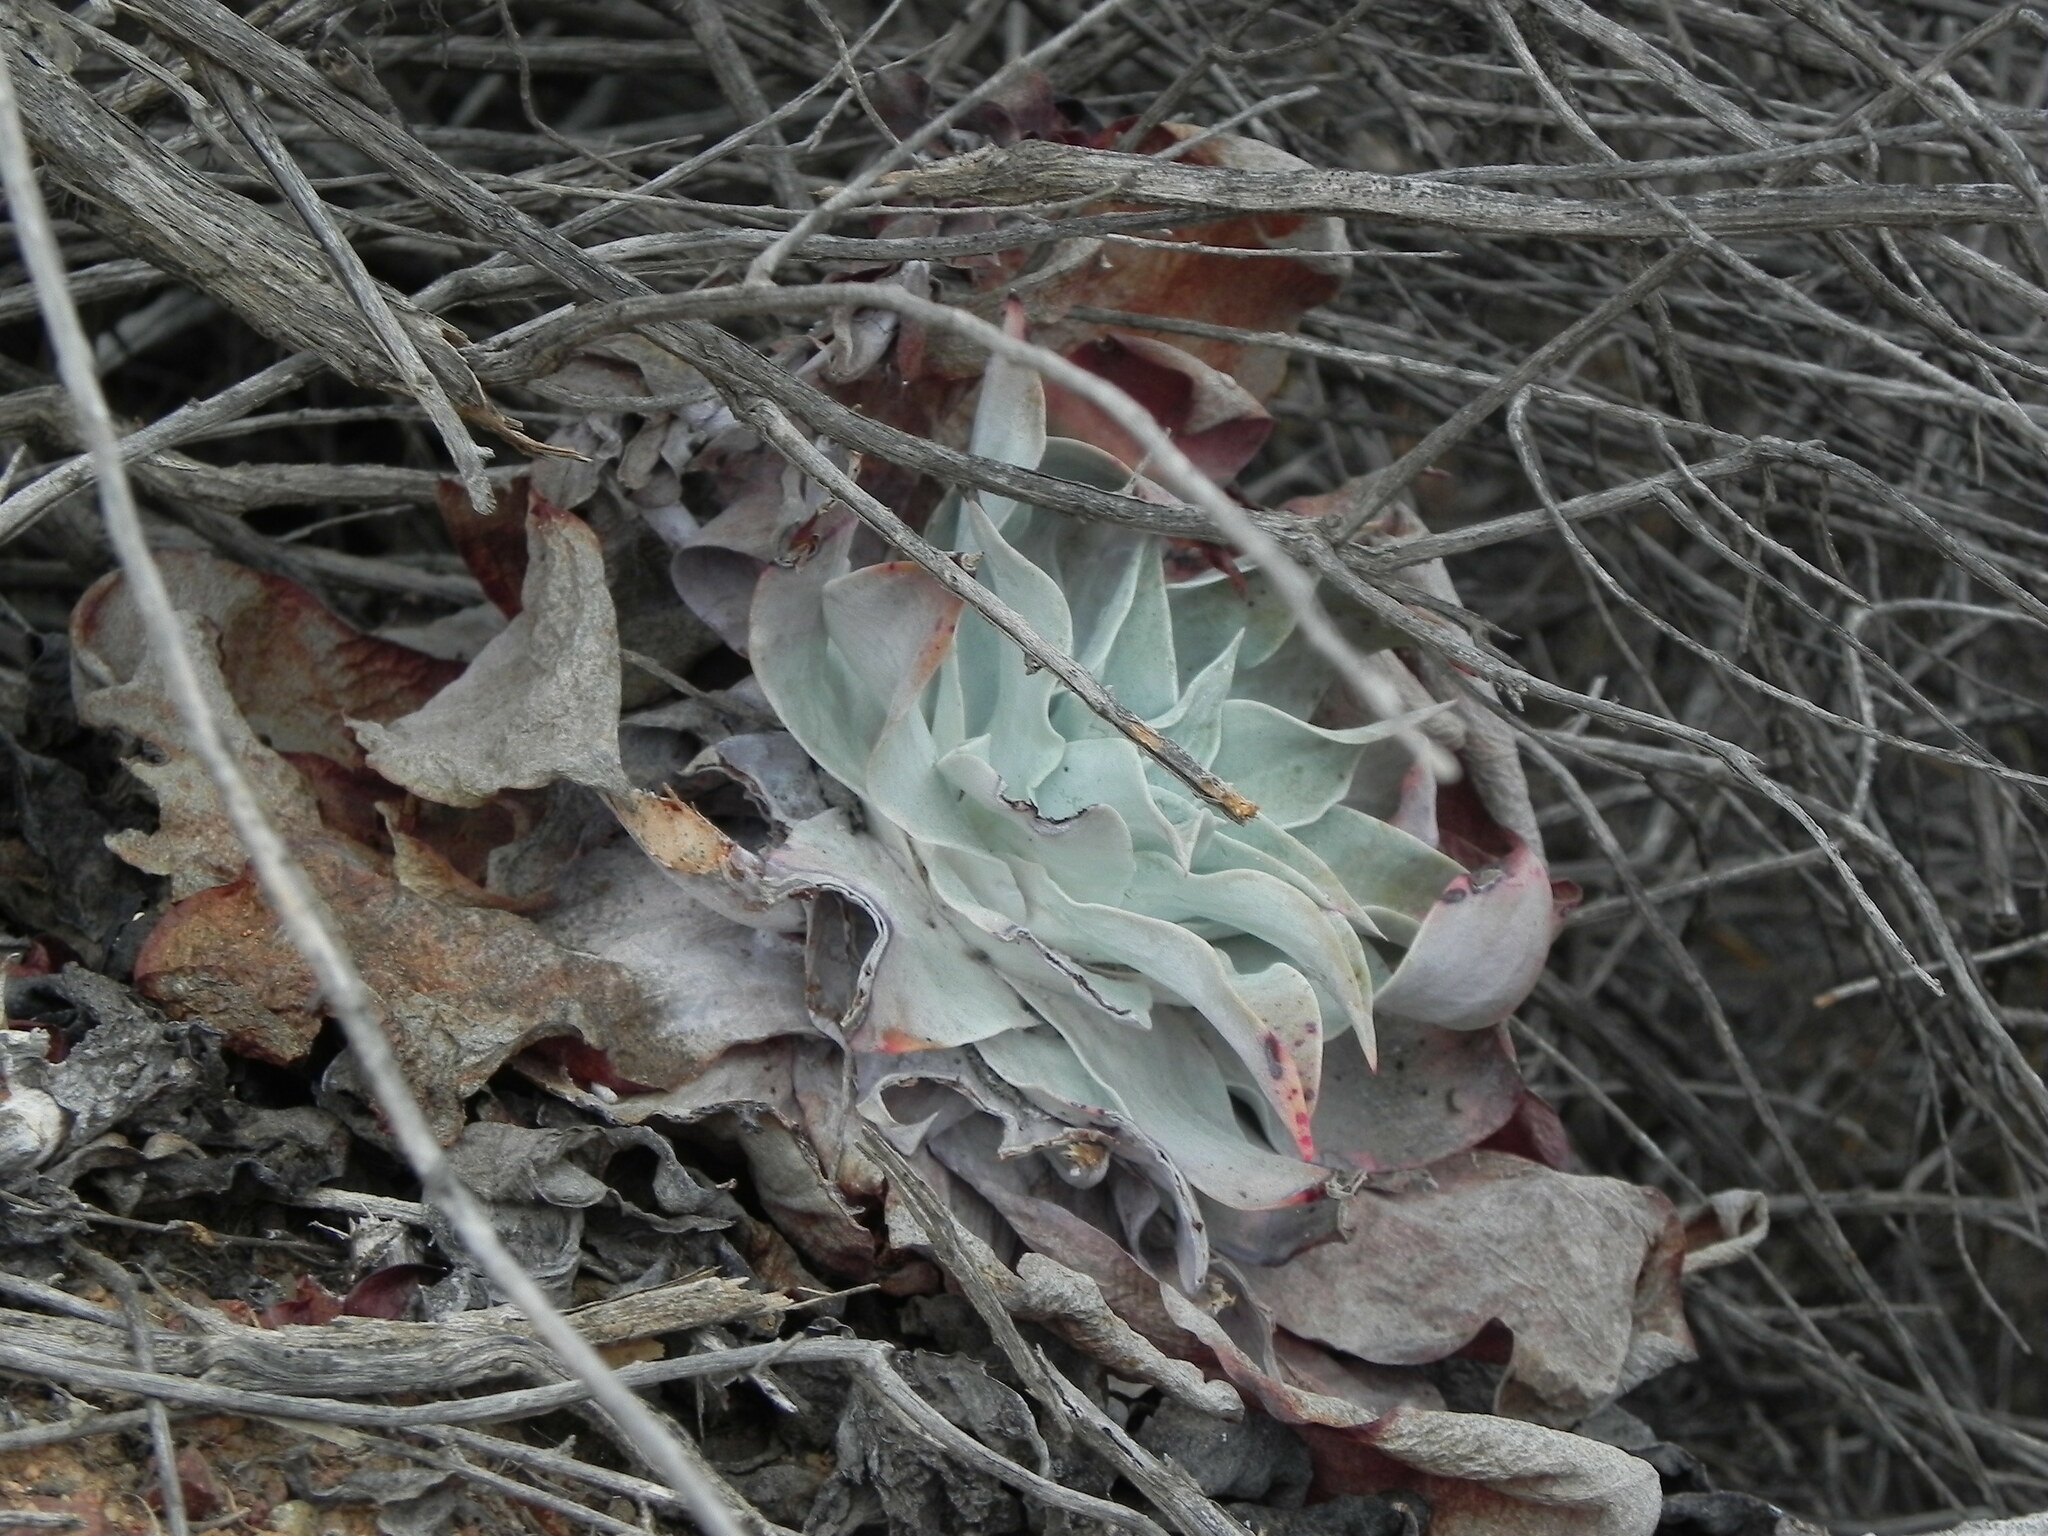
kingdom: Plantae
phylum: Tracheophyta
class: Magnoliopsida
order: Saxifragales
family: Crassulaceae
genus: Dudleya
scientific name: Dudleya pulverulenta
